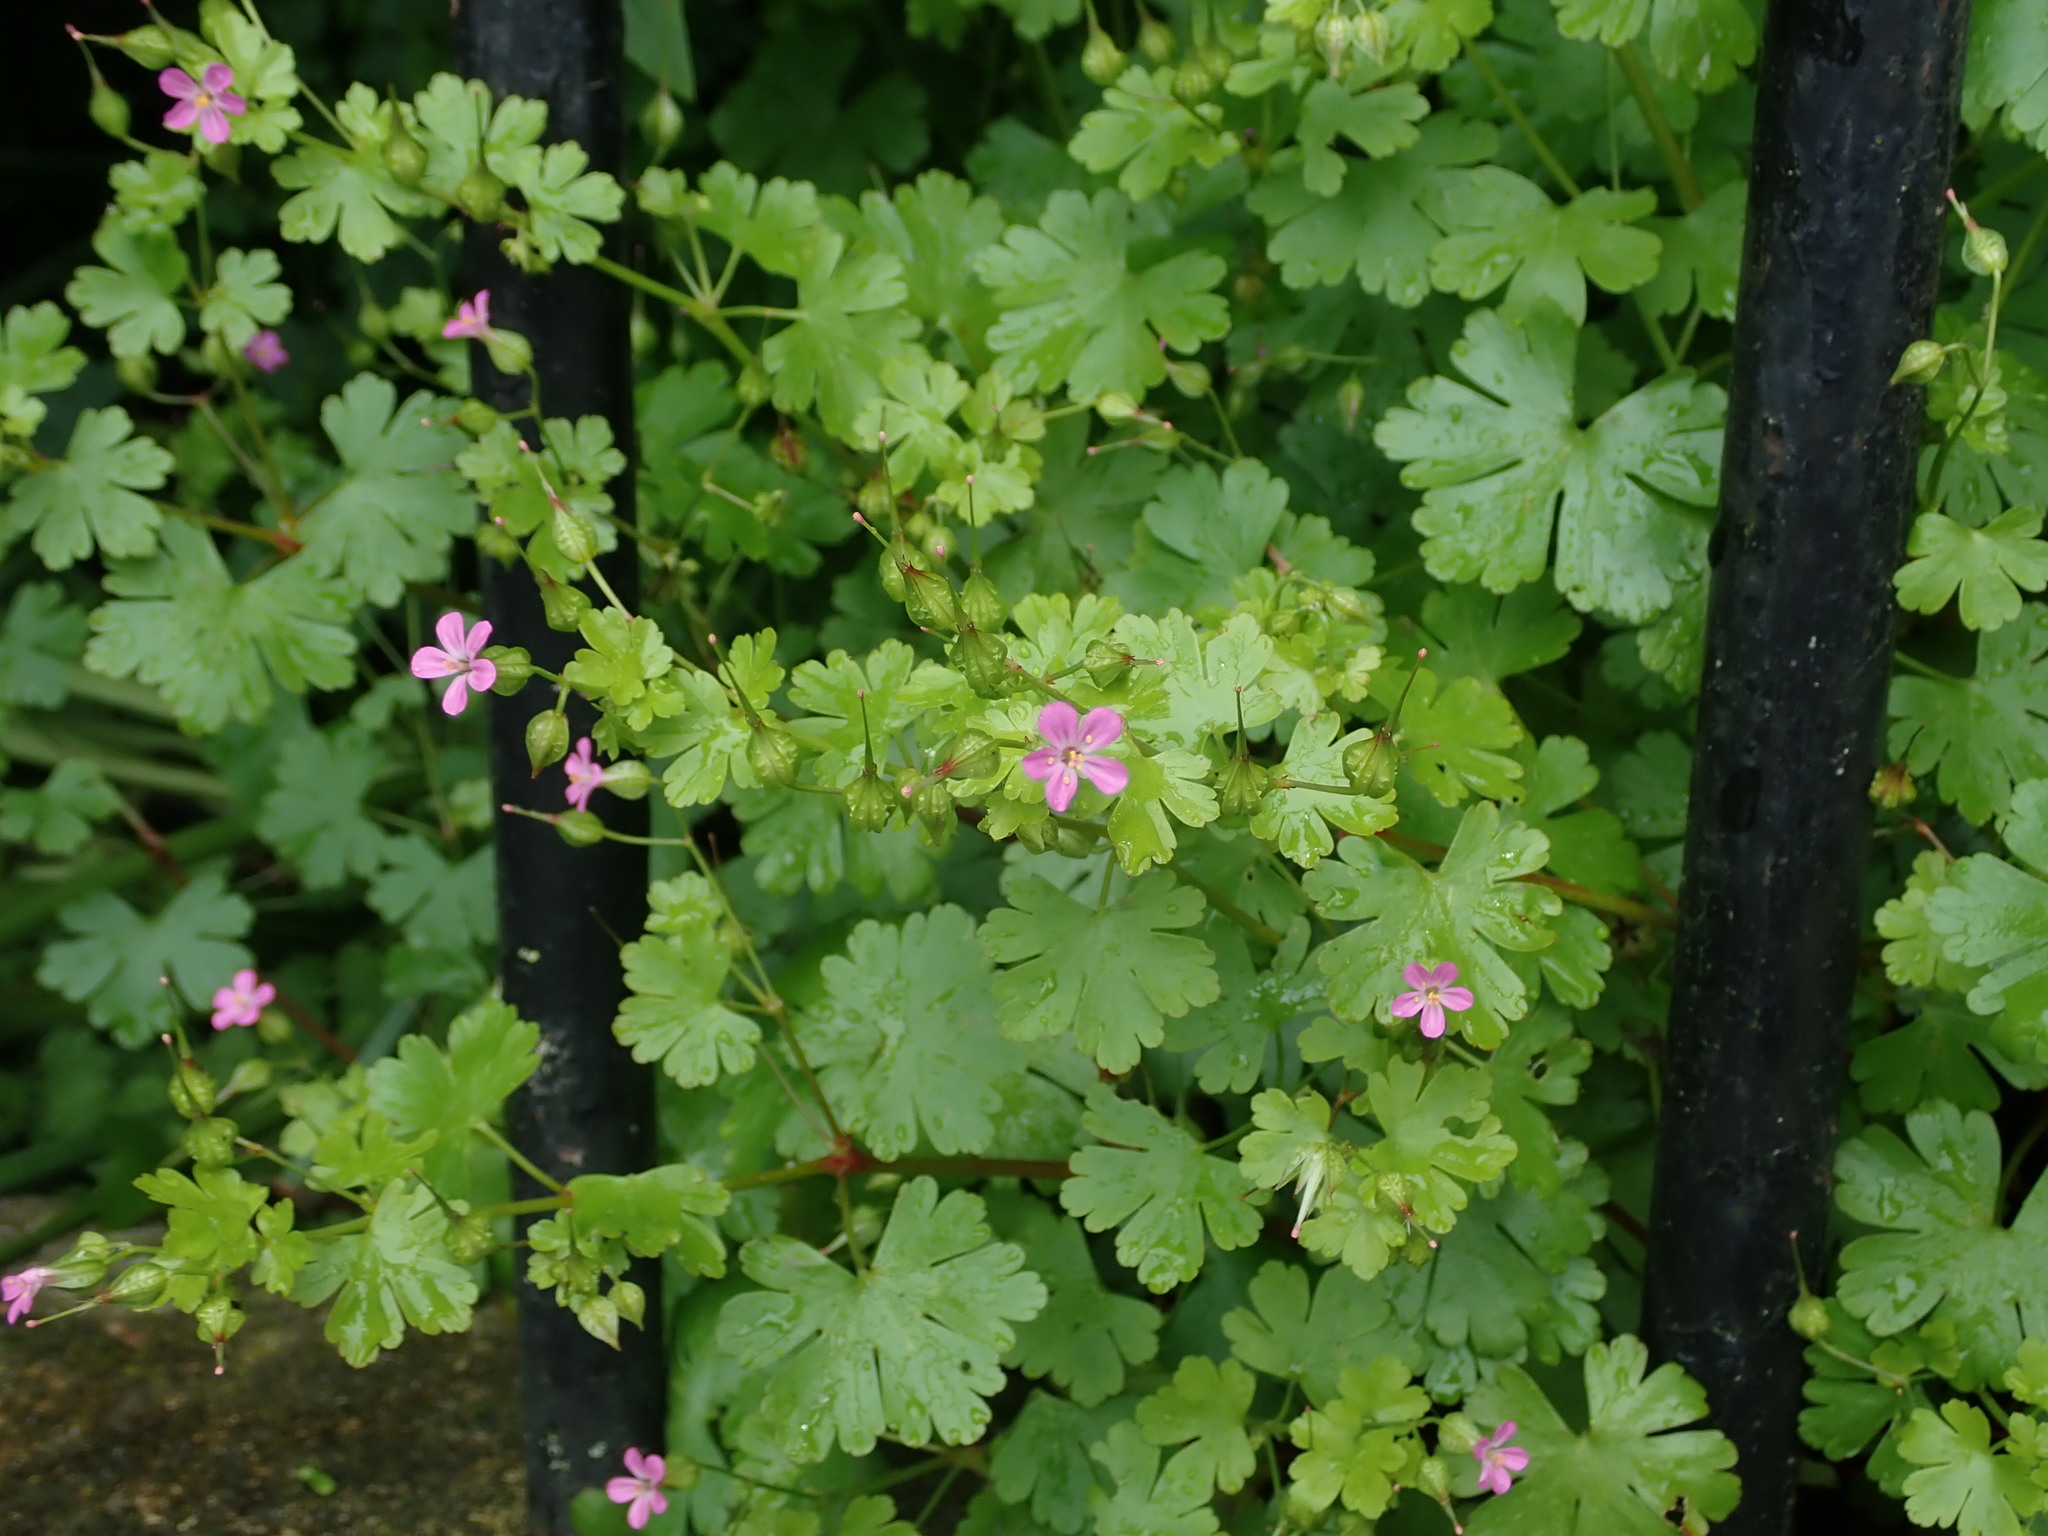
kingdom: Plantae
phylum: Tracheophyta
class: Magnoliopsida
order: Geraniales
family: Geraniaceae
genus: Geranium
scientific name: Geranium lucidum
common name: Shining crane's-bill
